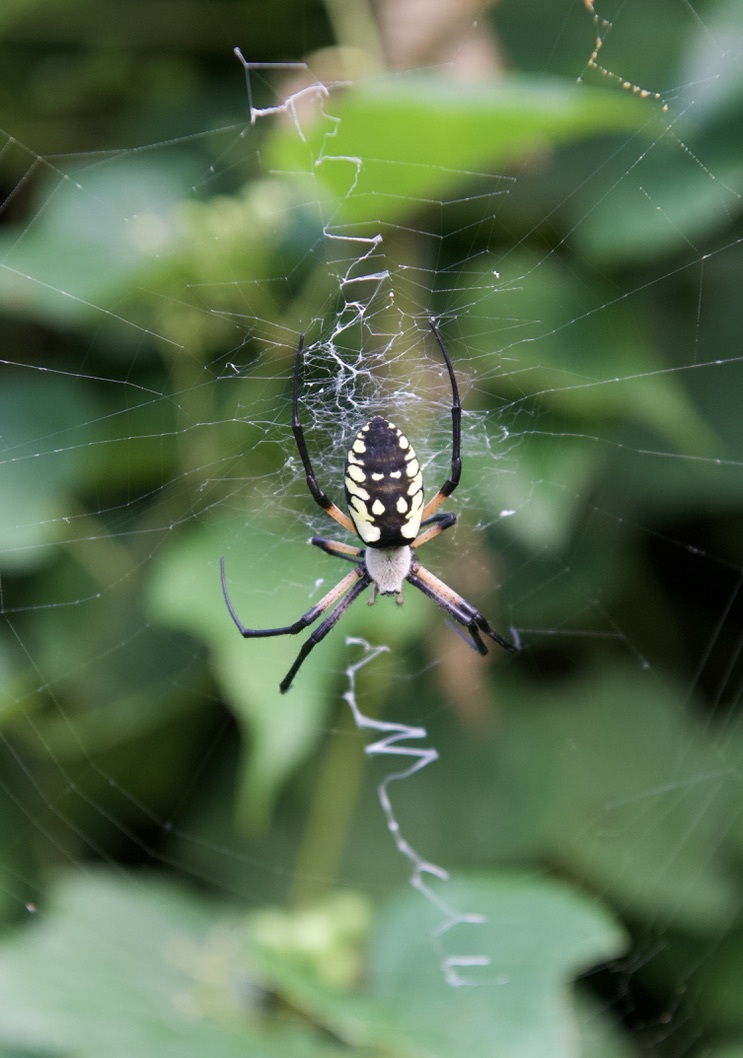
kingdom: Animalia
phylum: Arthropoda
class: Arachnida
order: Araneae
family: Araneidae
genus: Argiope
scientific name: Argiope aurantia
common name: Orb weavers
